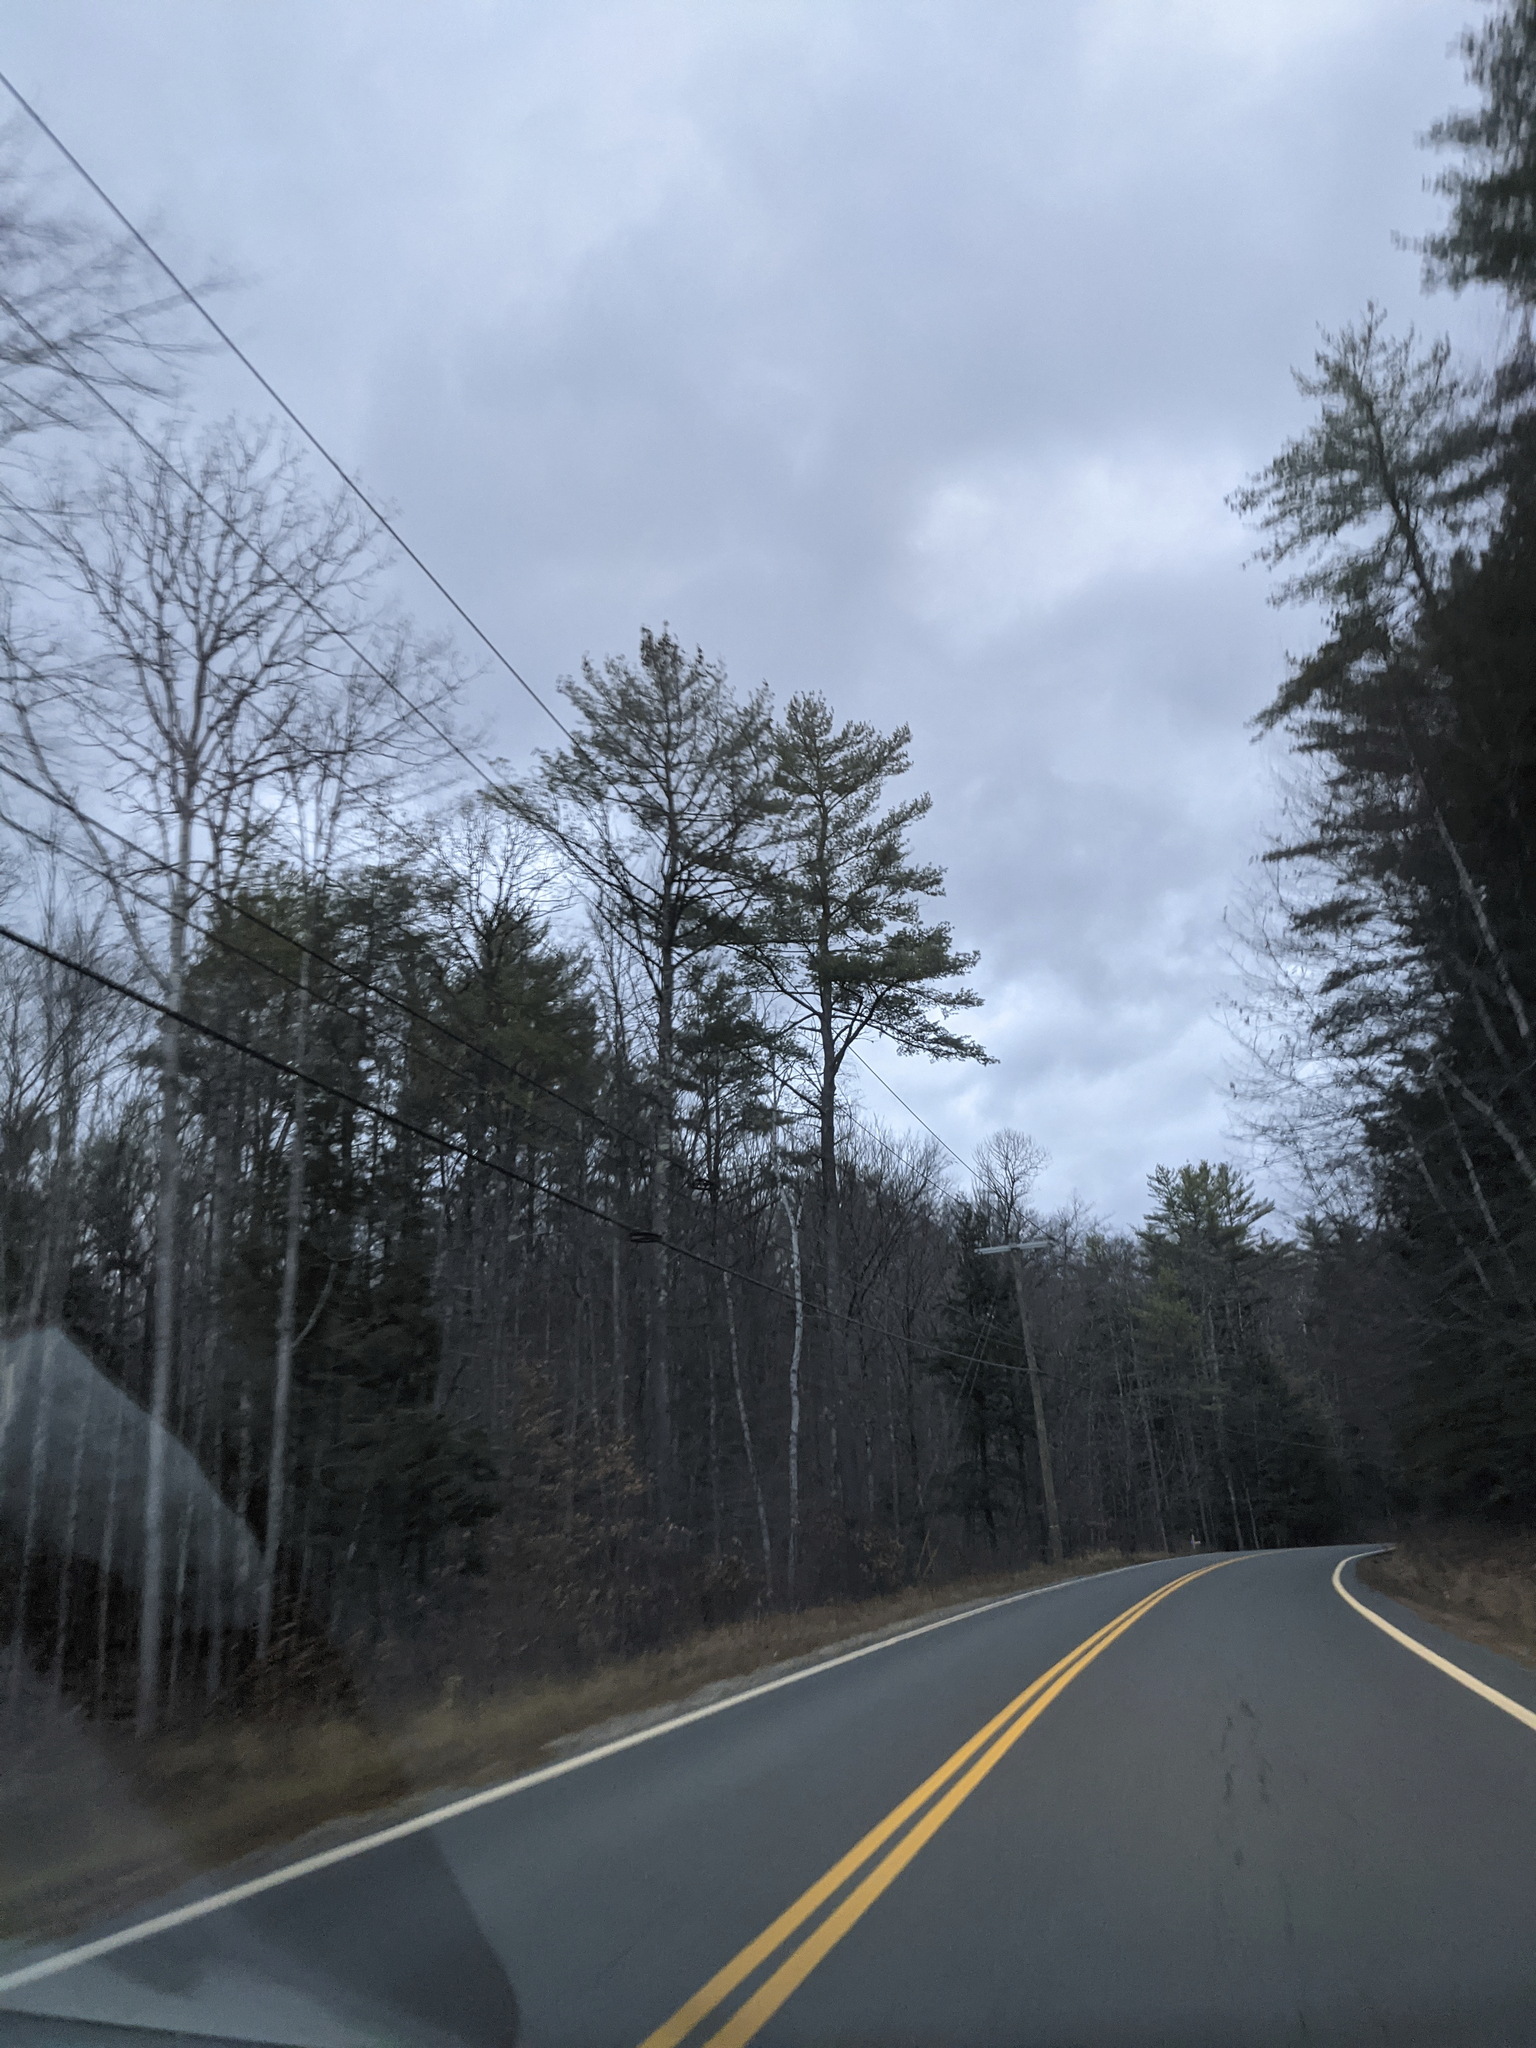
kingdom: Plantae
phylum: Tracheophyta
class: Pinopsida
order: Pinales
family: Pinaceae
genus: Pinus
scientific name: Pinus strobus
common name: Weymouth pine
